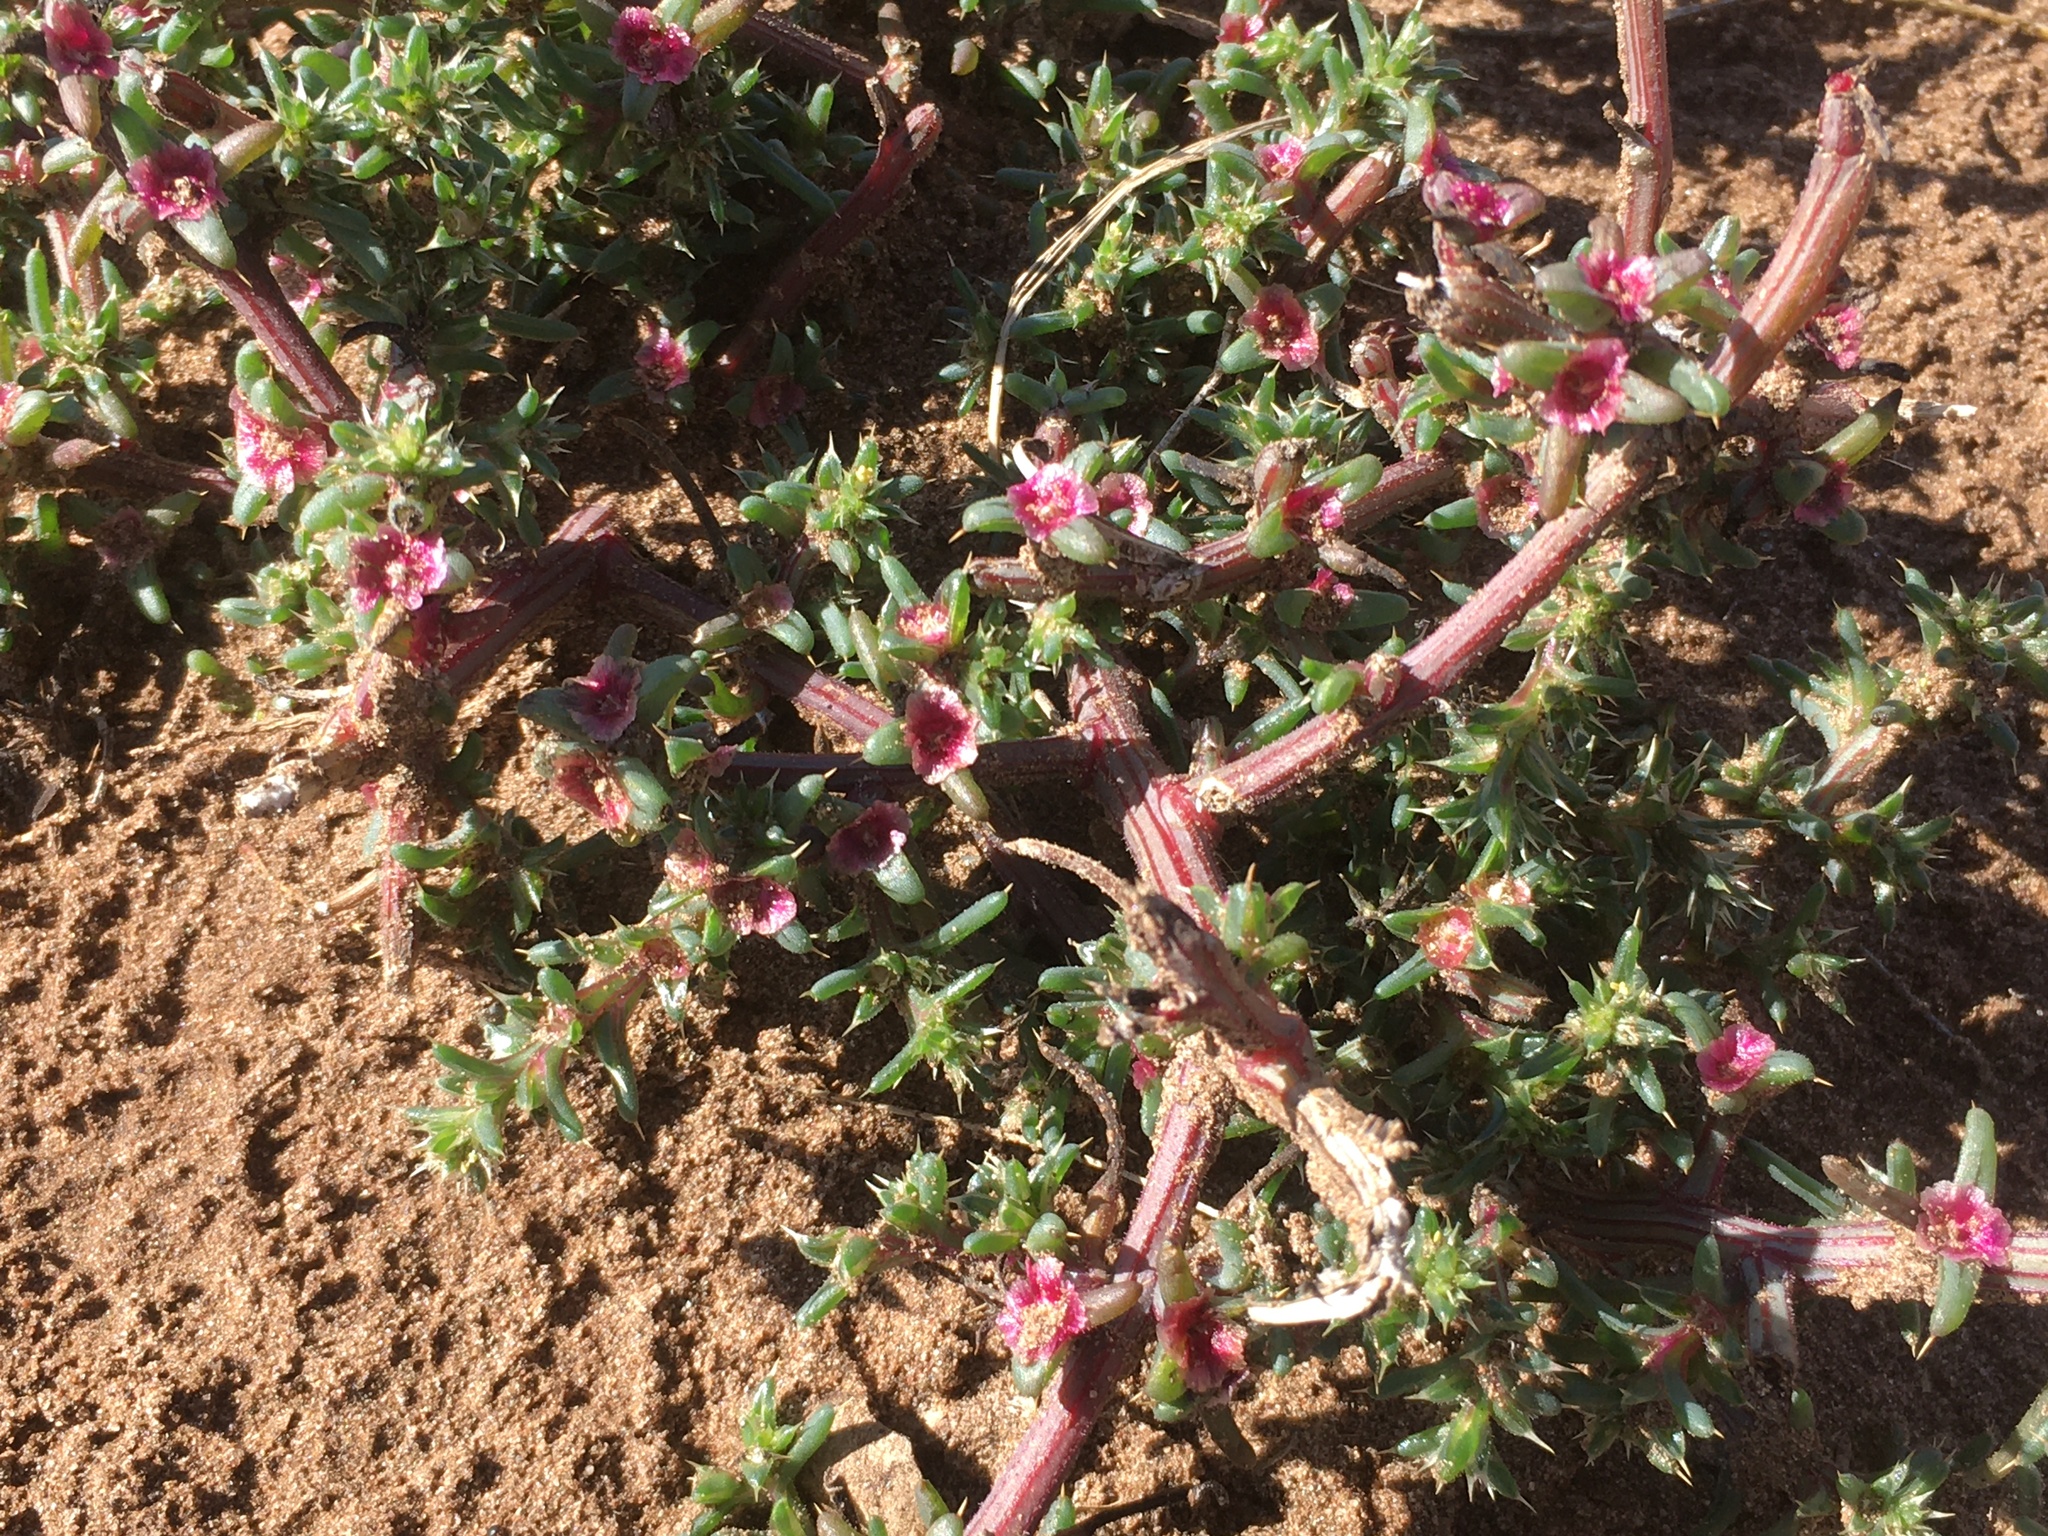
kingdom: Plantae
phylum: Tracheophyta
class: Magnoliopsida
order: Caryophyllales
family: Amaranthaceae
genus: Salsola
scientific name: Salsola kali
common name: Saltwort
